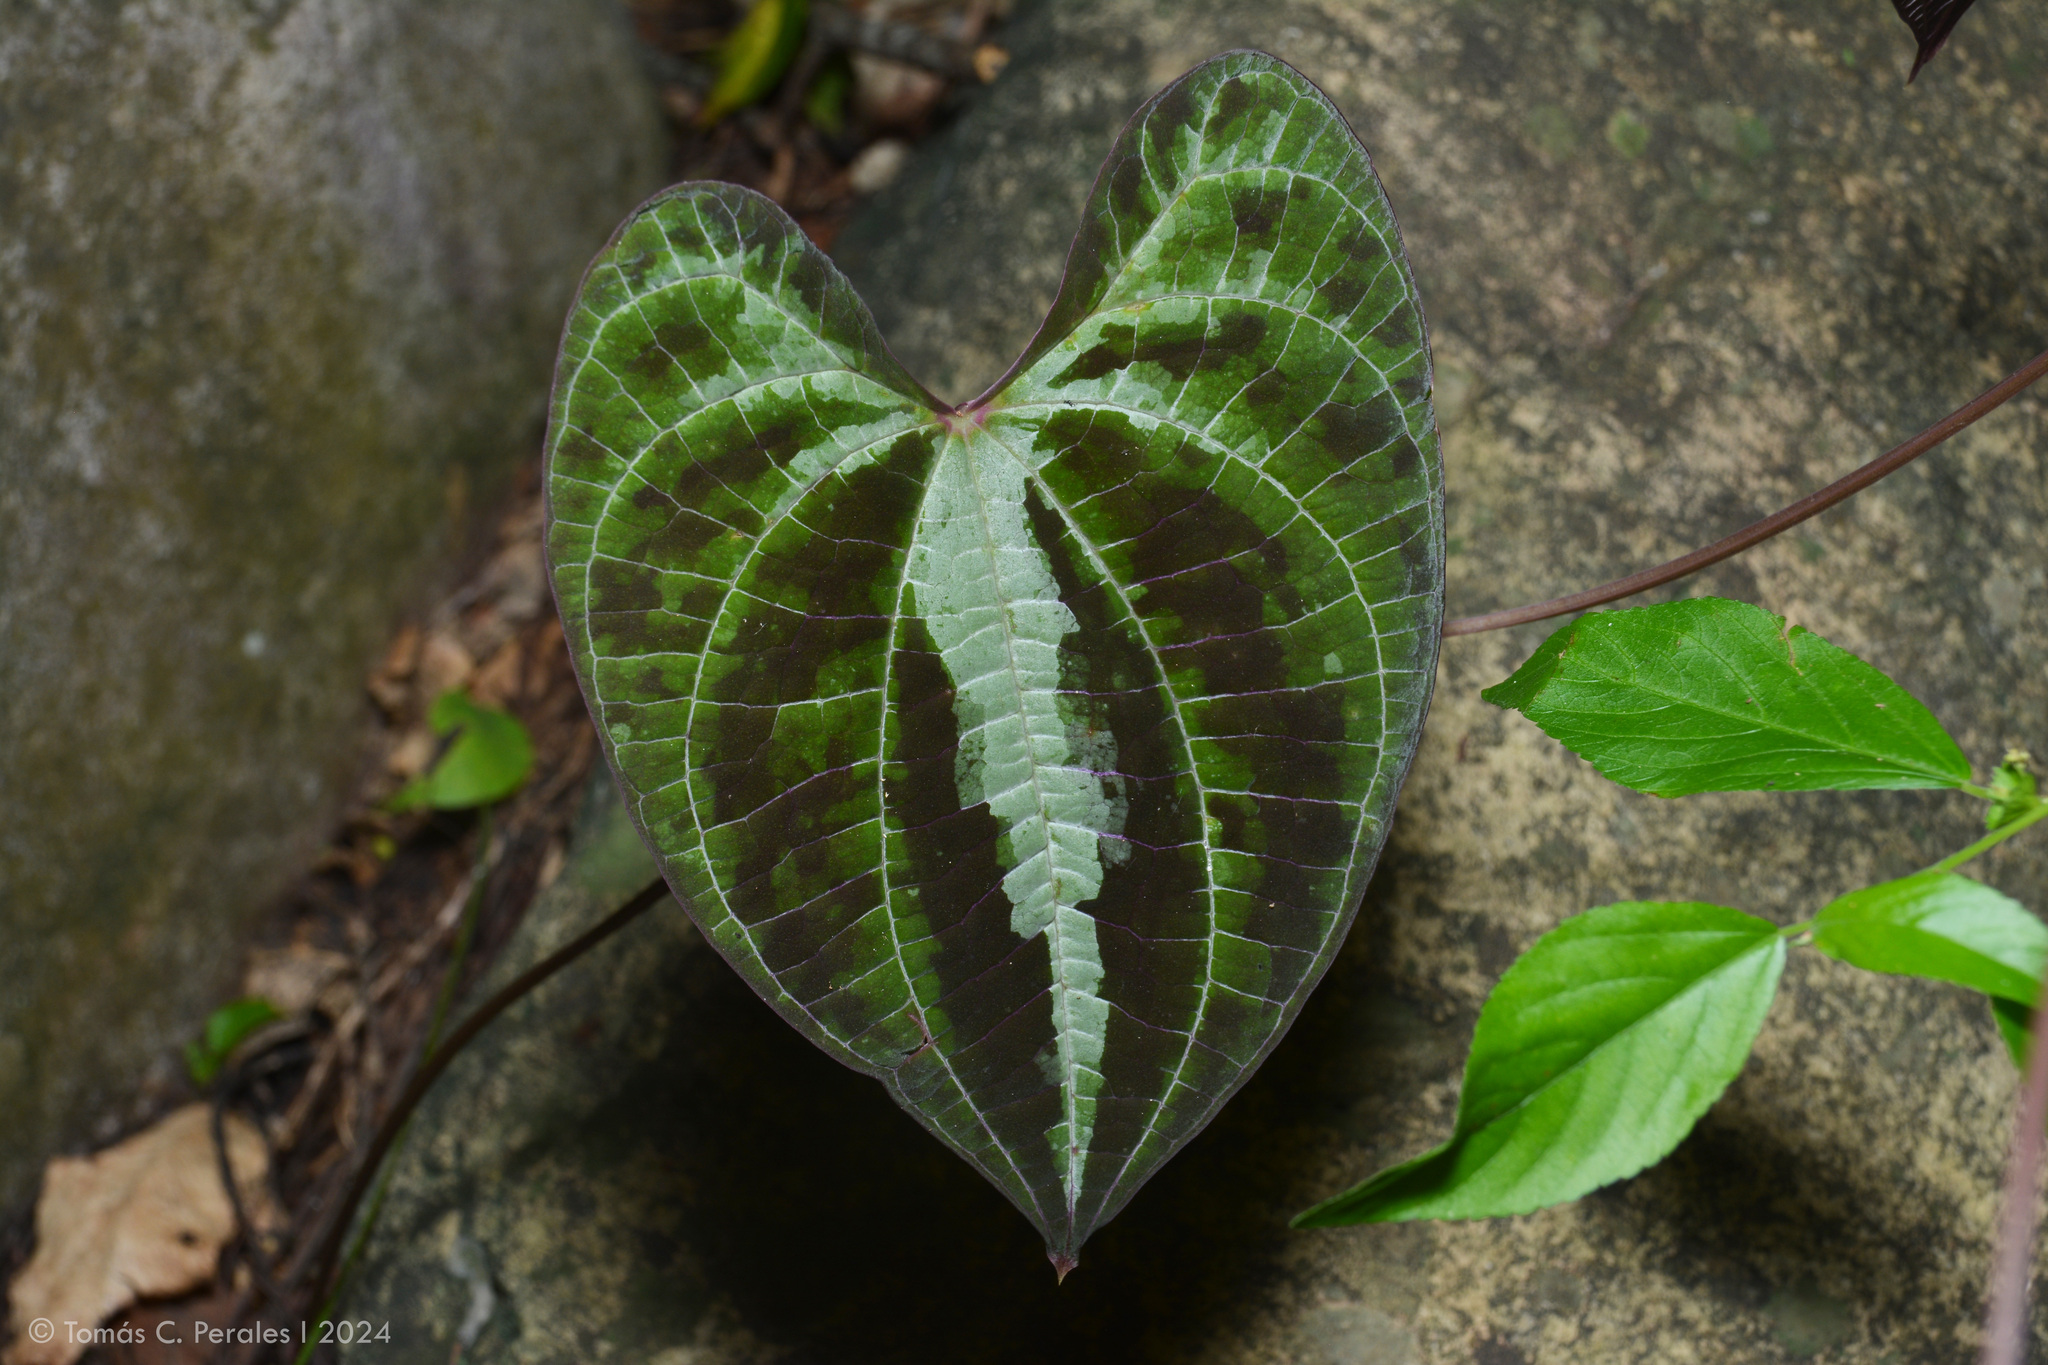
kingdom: Plantae
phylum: Tracheophyta
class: Liliopsida
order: Dioscoreales
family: Dioscoreaceae
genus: Dioscorea
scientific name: Dioscorea dodecaneura
